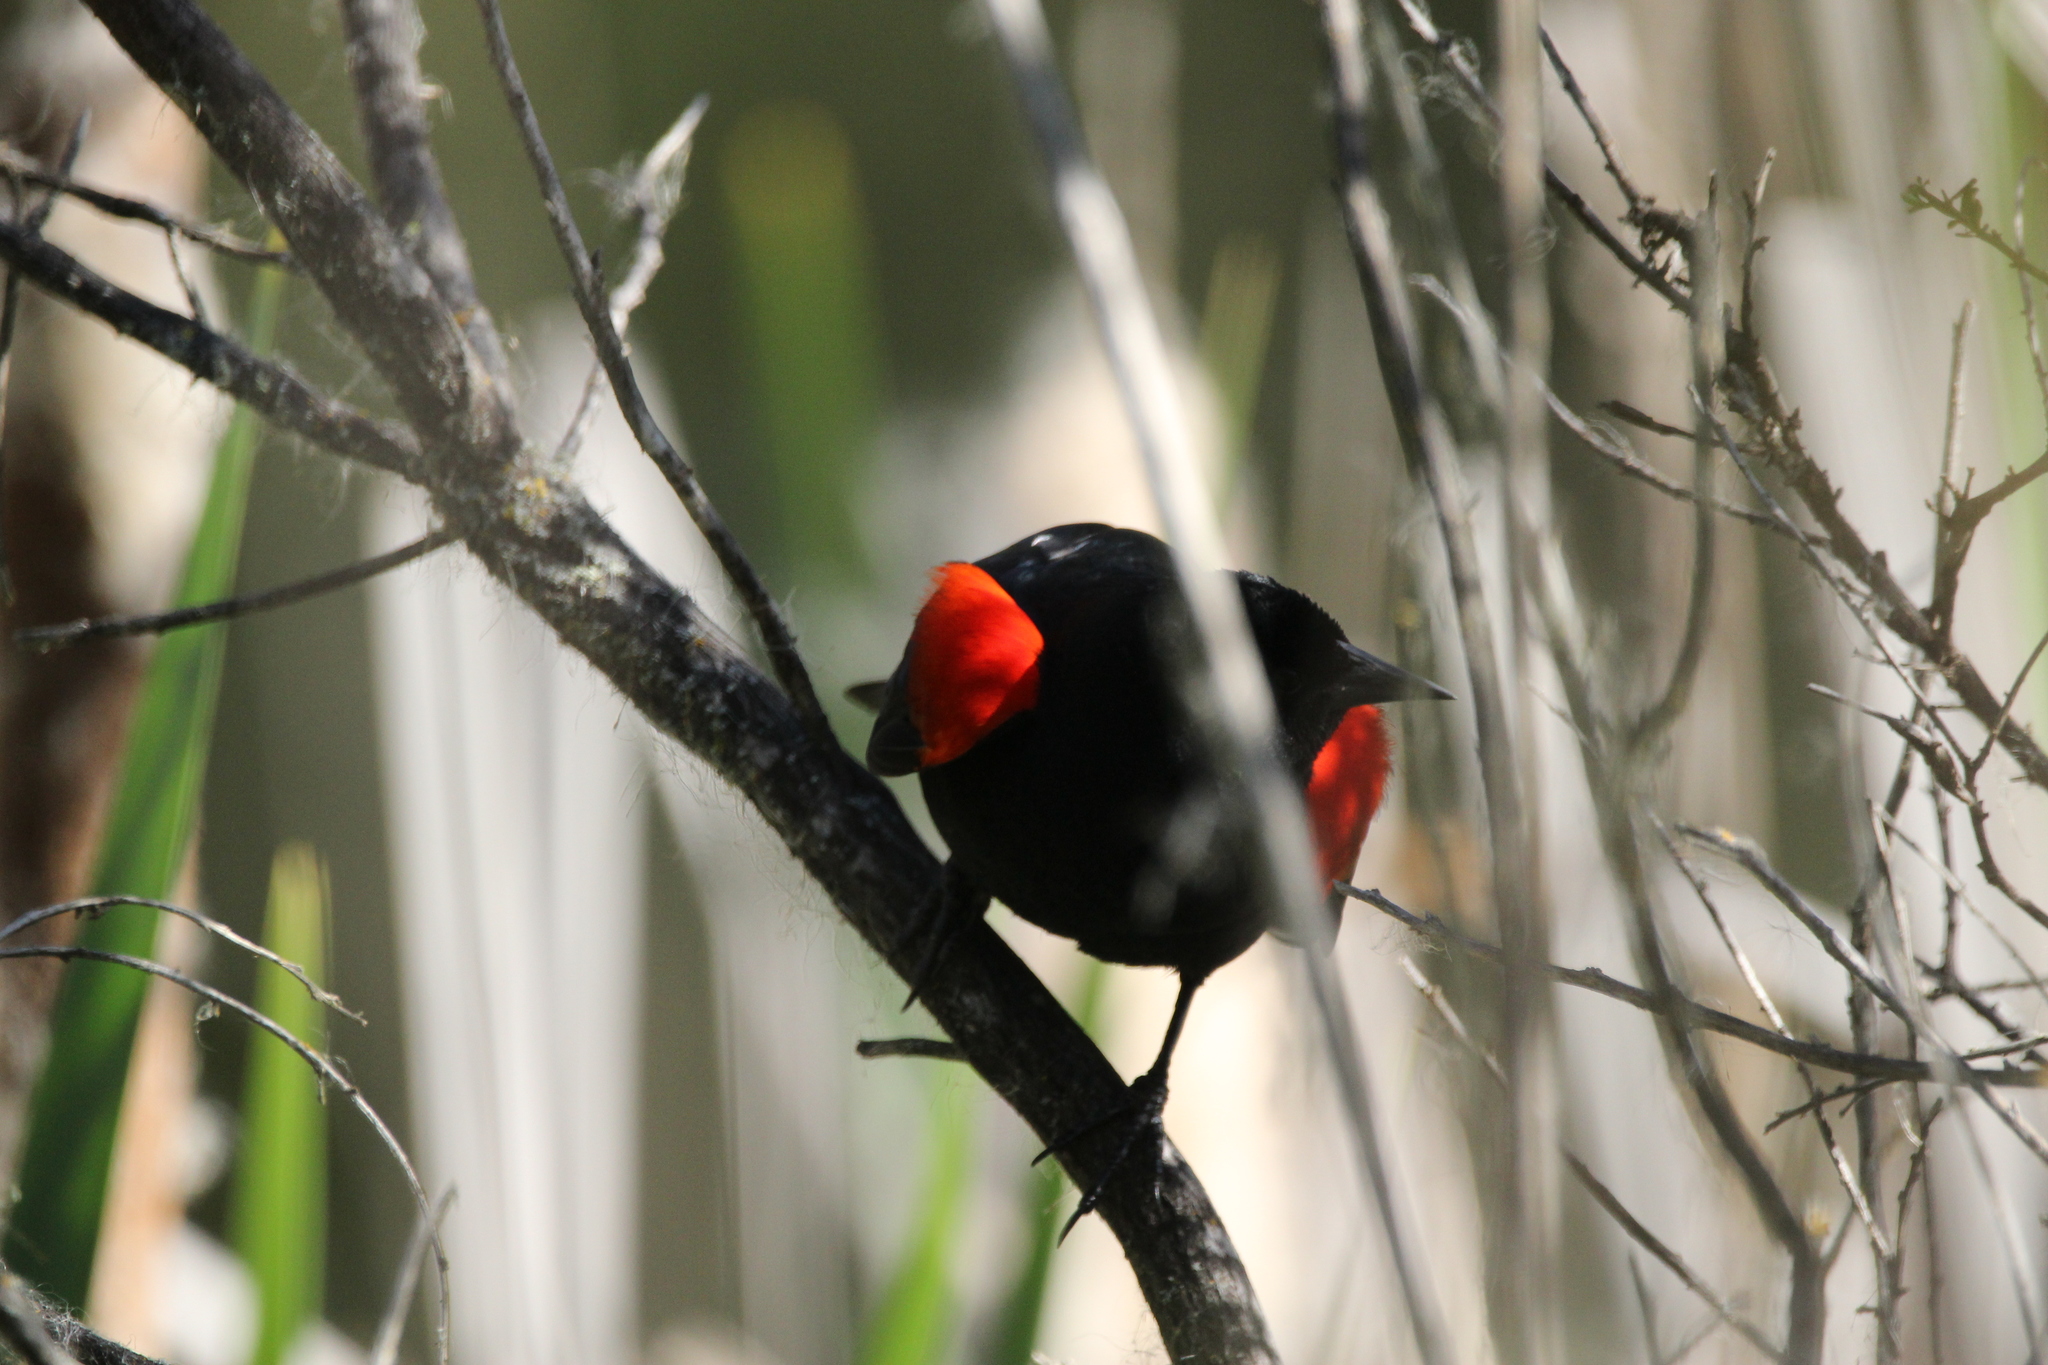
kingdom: Animalia
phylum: Chordata
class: Aves
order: Passeriformes
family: Icteridae
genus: Agelaius
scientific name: Agelaius phoeniceus
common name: Red-winged blackbird
